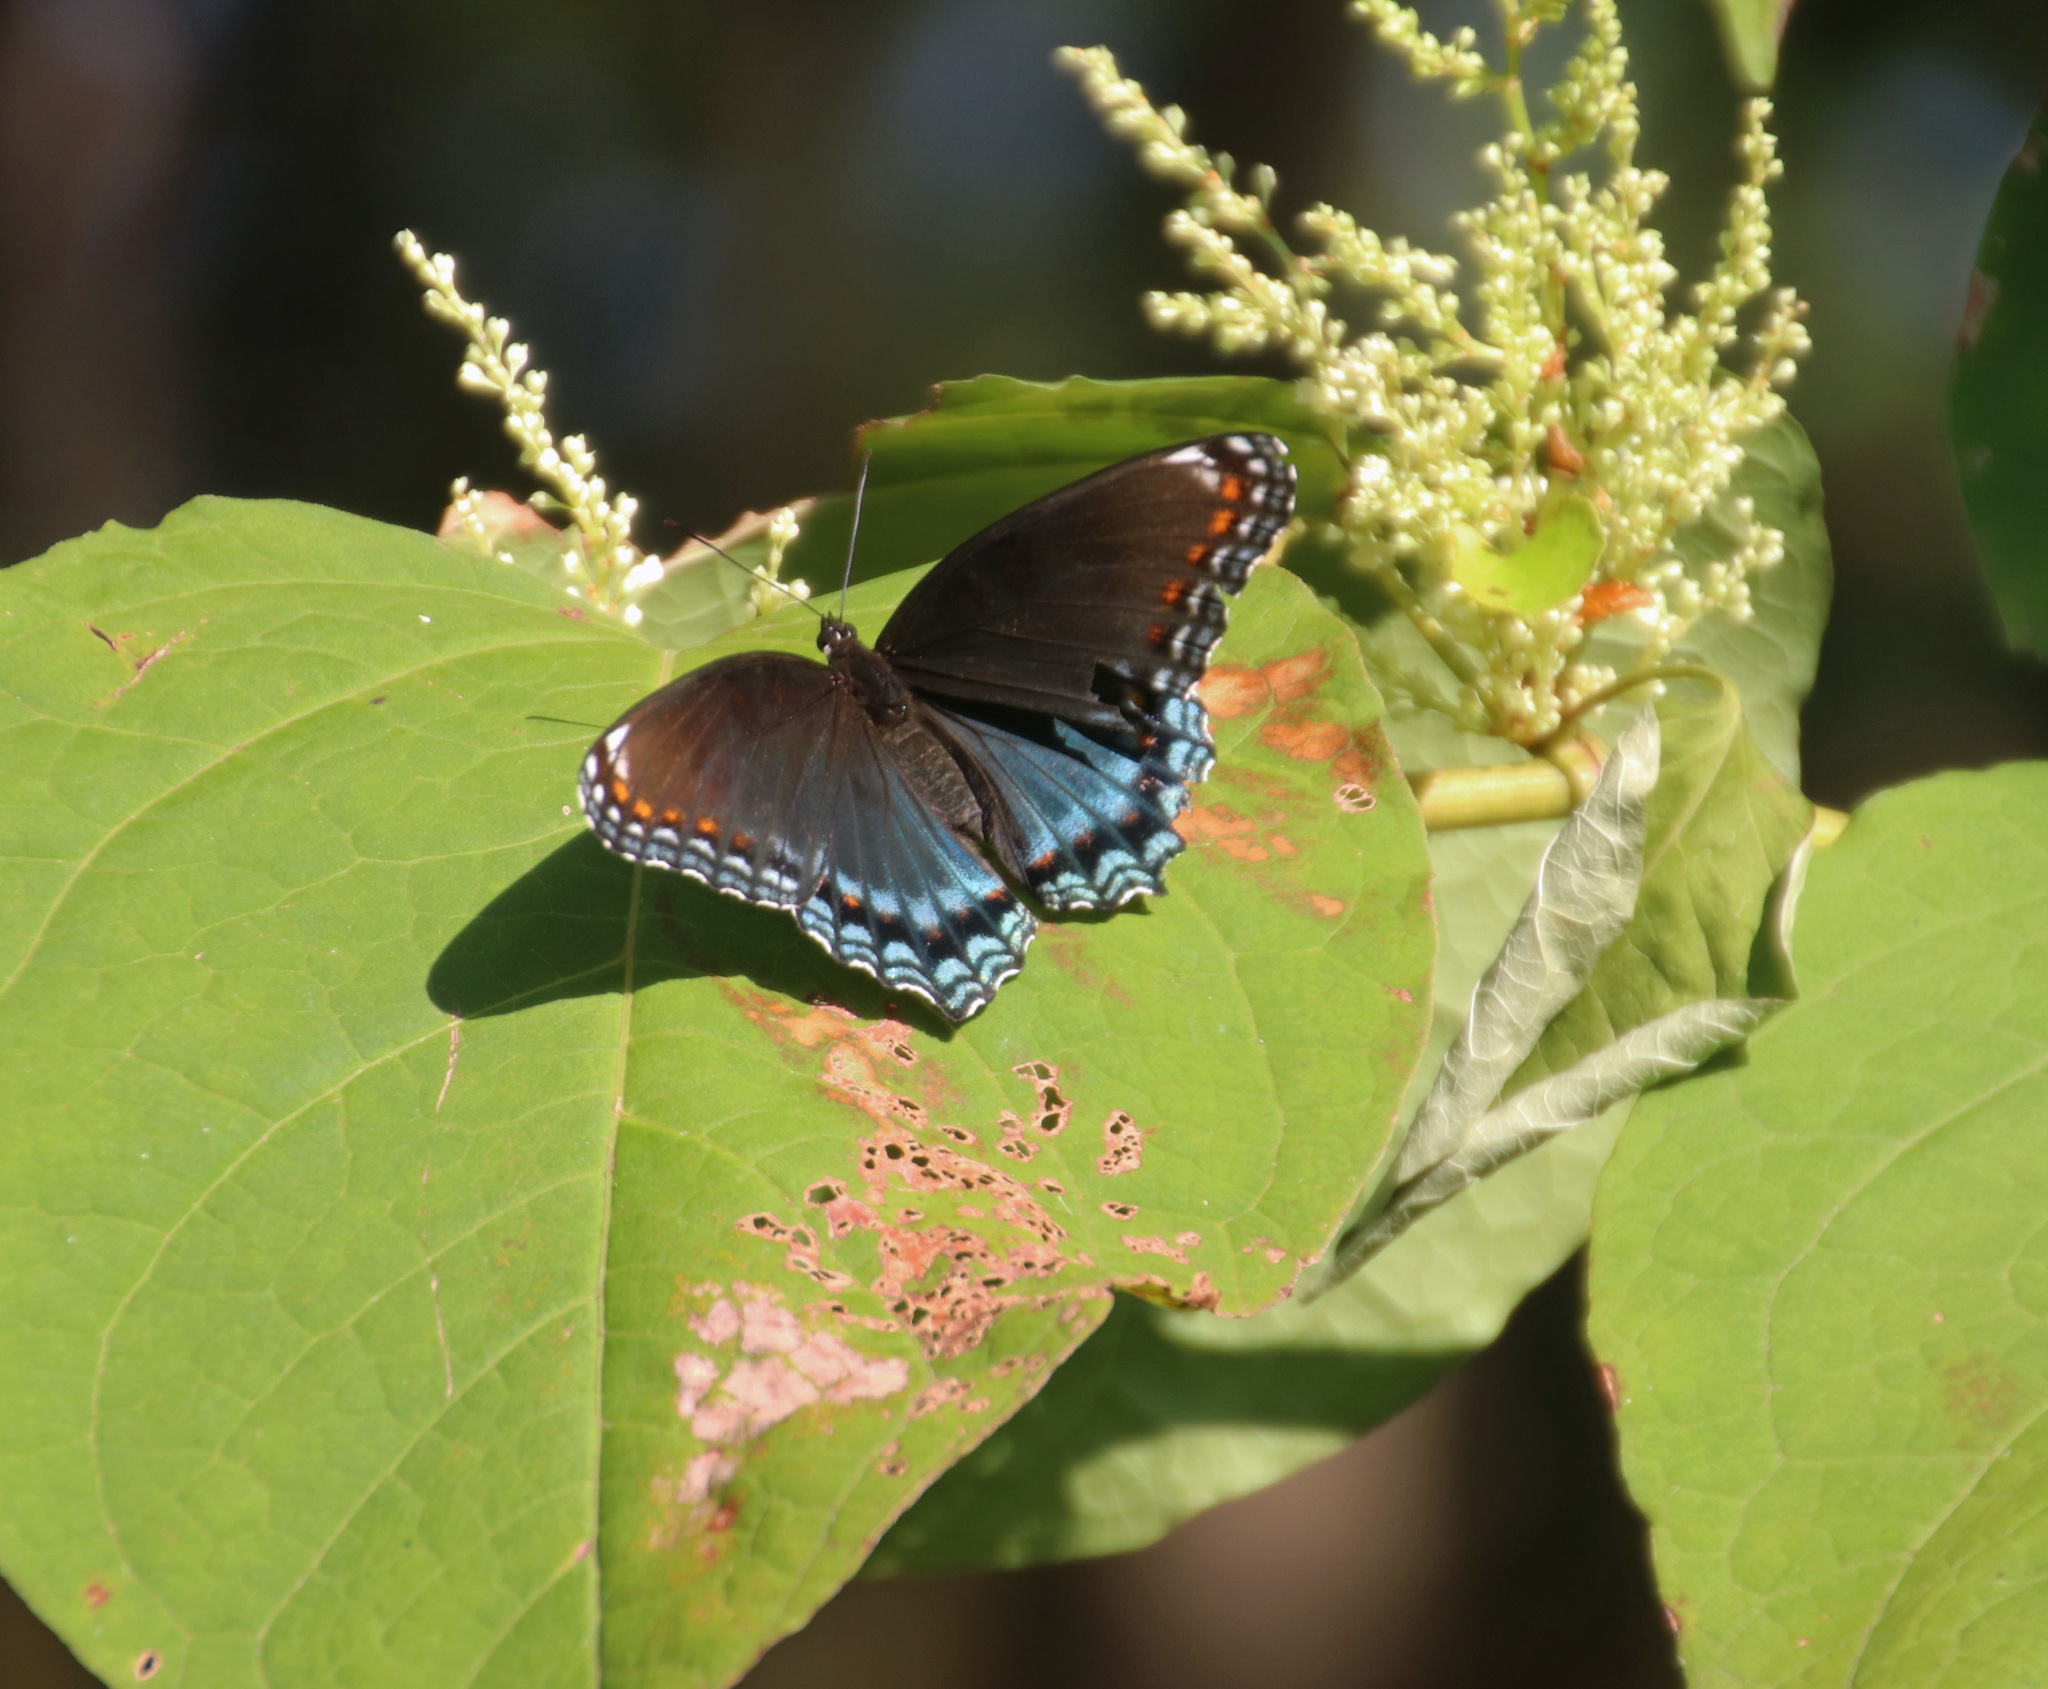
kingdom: Animalia
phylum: Arthropoda
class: Insecta
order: Lepidoptera
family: Nymphalidae
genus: Limenitis
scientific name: Limenitis astyanax
